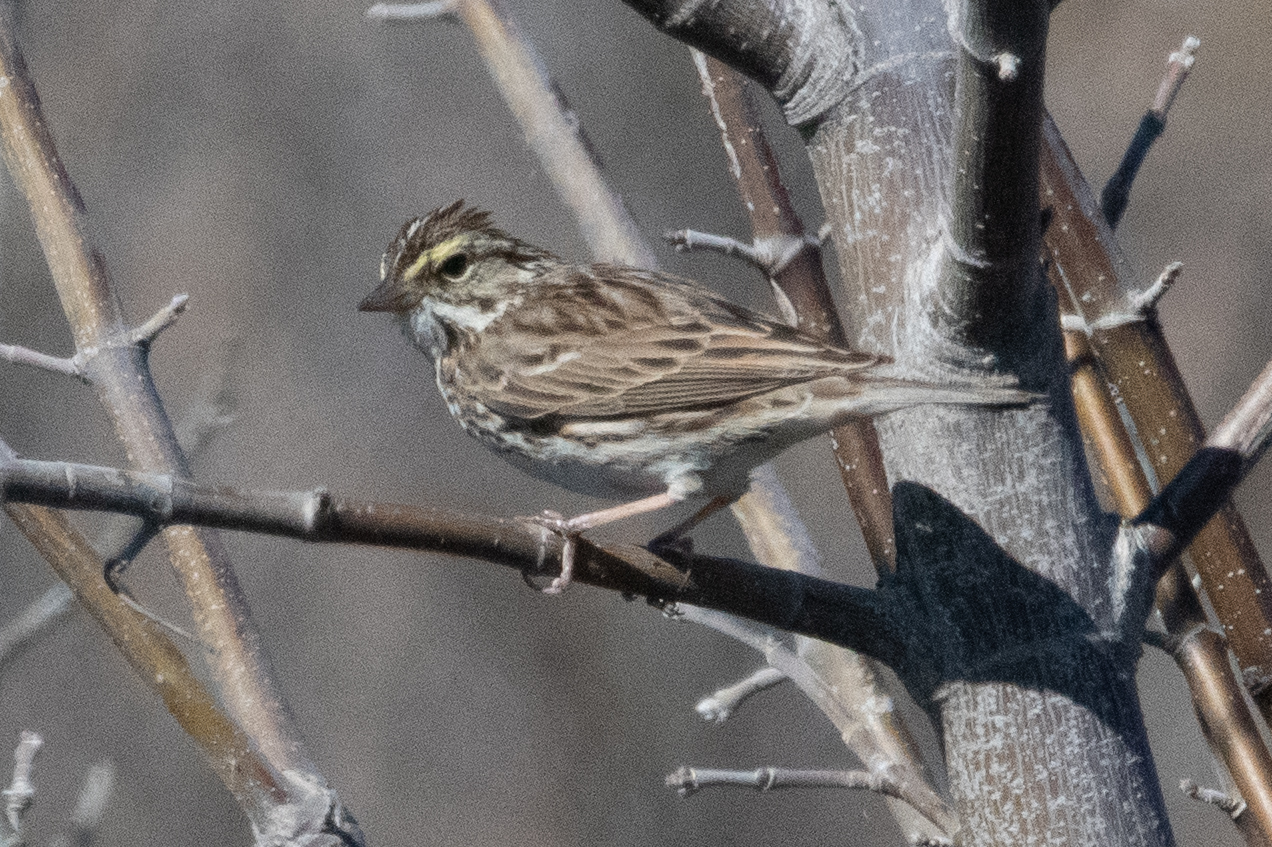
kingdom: Animalia
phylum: Chordata
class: Aves
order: Passeriformes
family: Passerellidae
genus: Passerculus
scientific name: Passerculus sandwichensis
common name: Savannah sparrow
